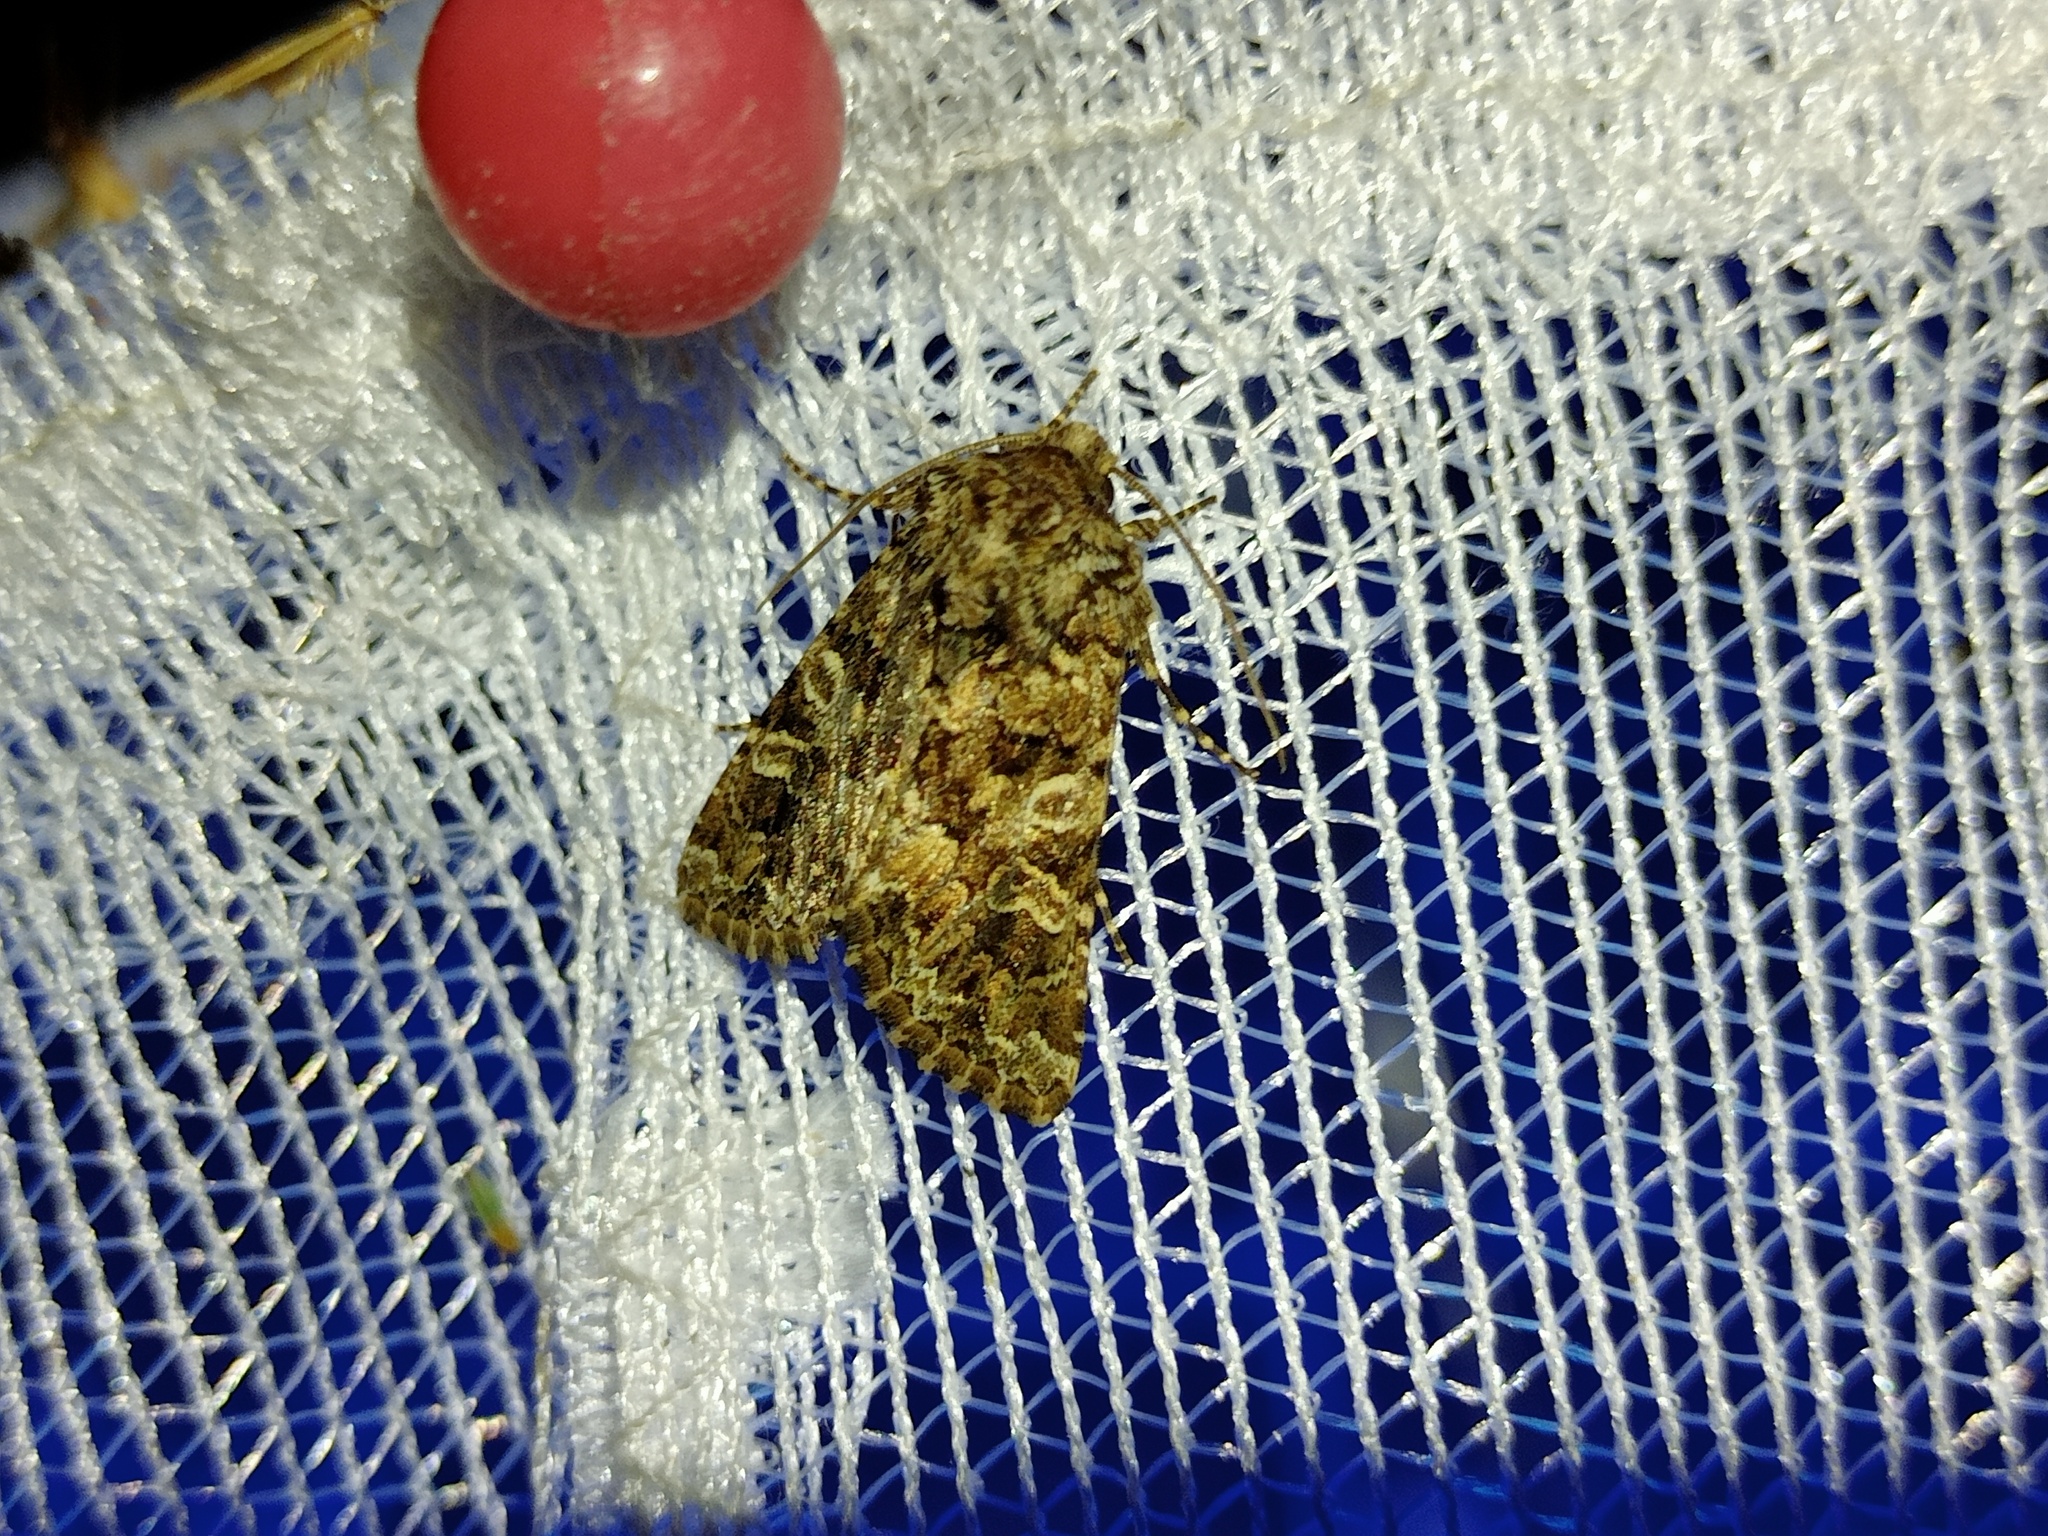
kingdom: Animalia
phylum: Arthropoda
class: Insecta
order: Lepidoptera
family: Noctuidae
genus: Hadena
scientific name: Hadena perplexa
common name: Tawny shears
